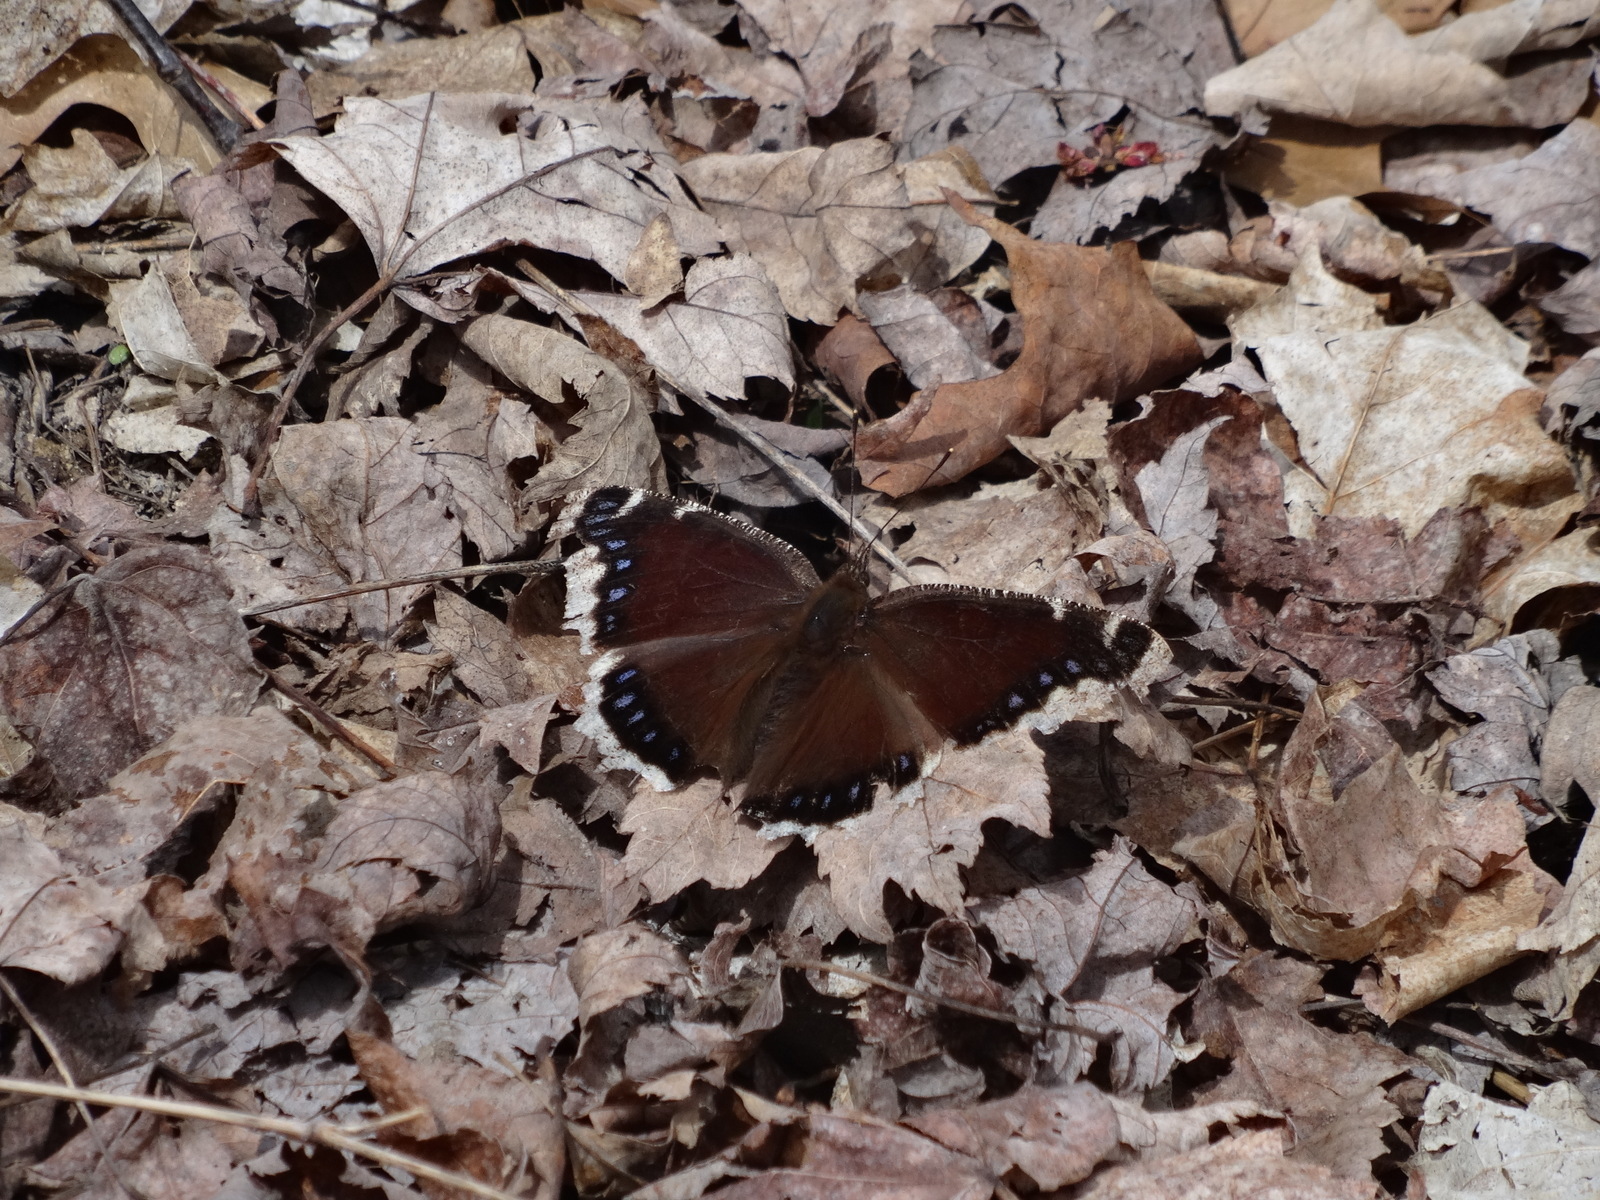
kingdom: Animalia
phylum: Arthropoda
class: Insecta
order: Lepidoptera
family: Nymphalidae
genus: Nymphalis
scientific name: Nymphalis antiopa
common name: Camberwell beauty
